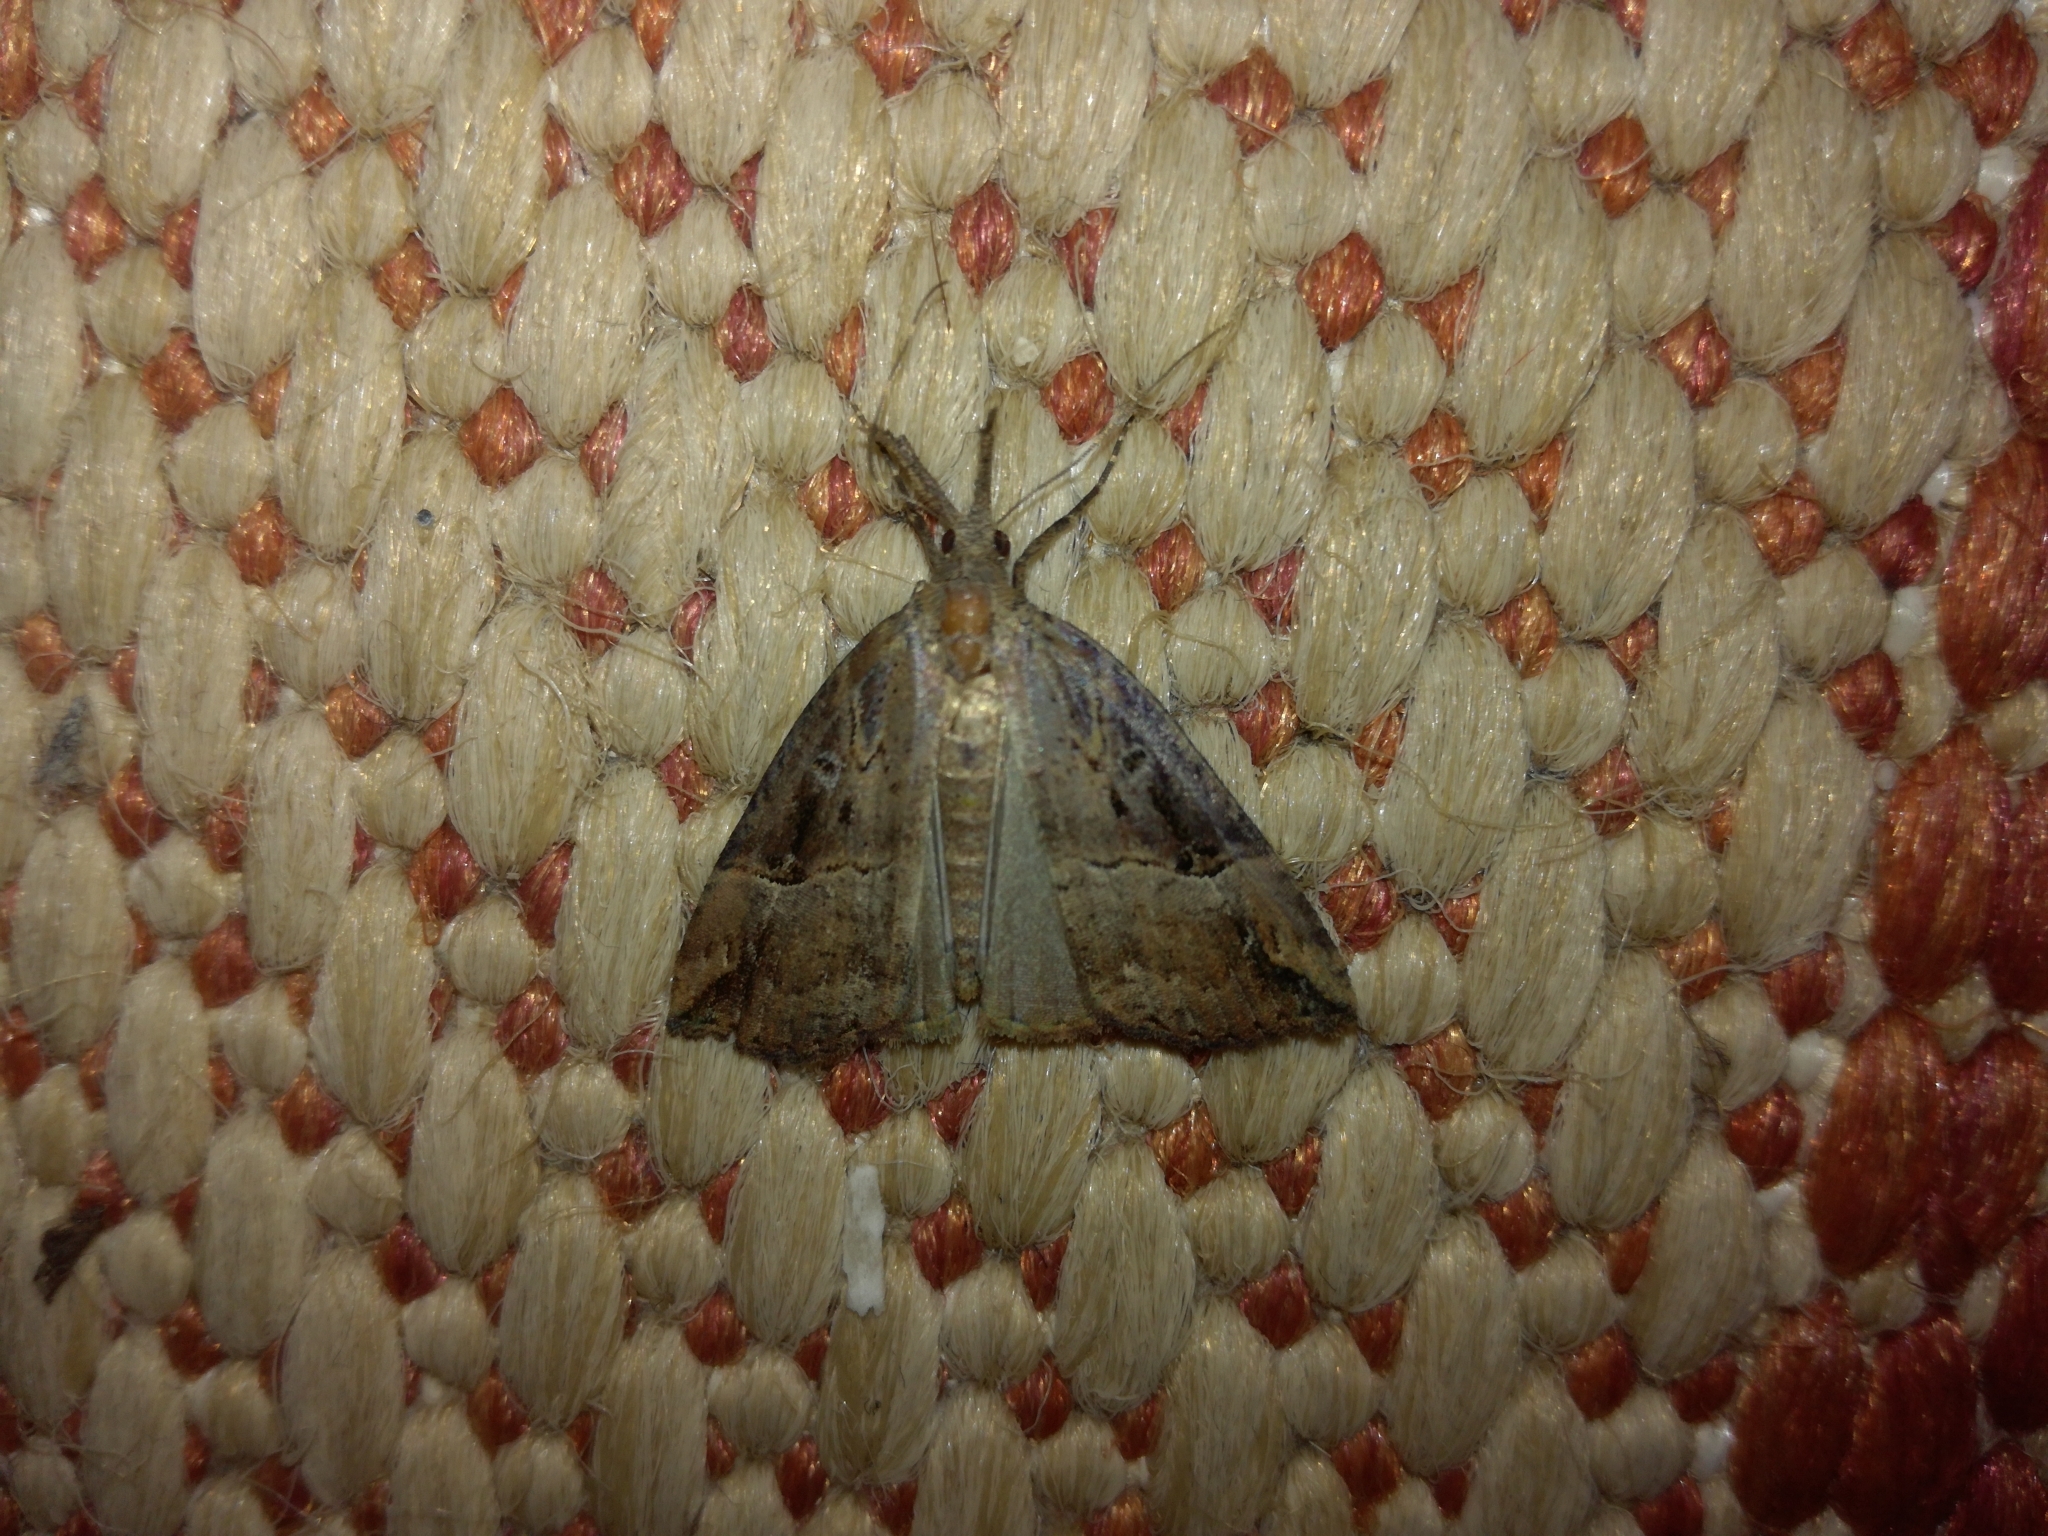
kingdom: Animalia
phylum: Arthropoda
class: Insecta
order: Lepidoptera
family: Erebidae
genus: Hypena
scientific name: Hypena rostralis
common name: Buttoned snout
